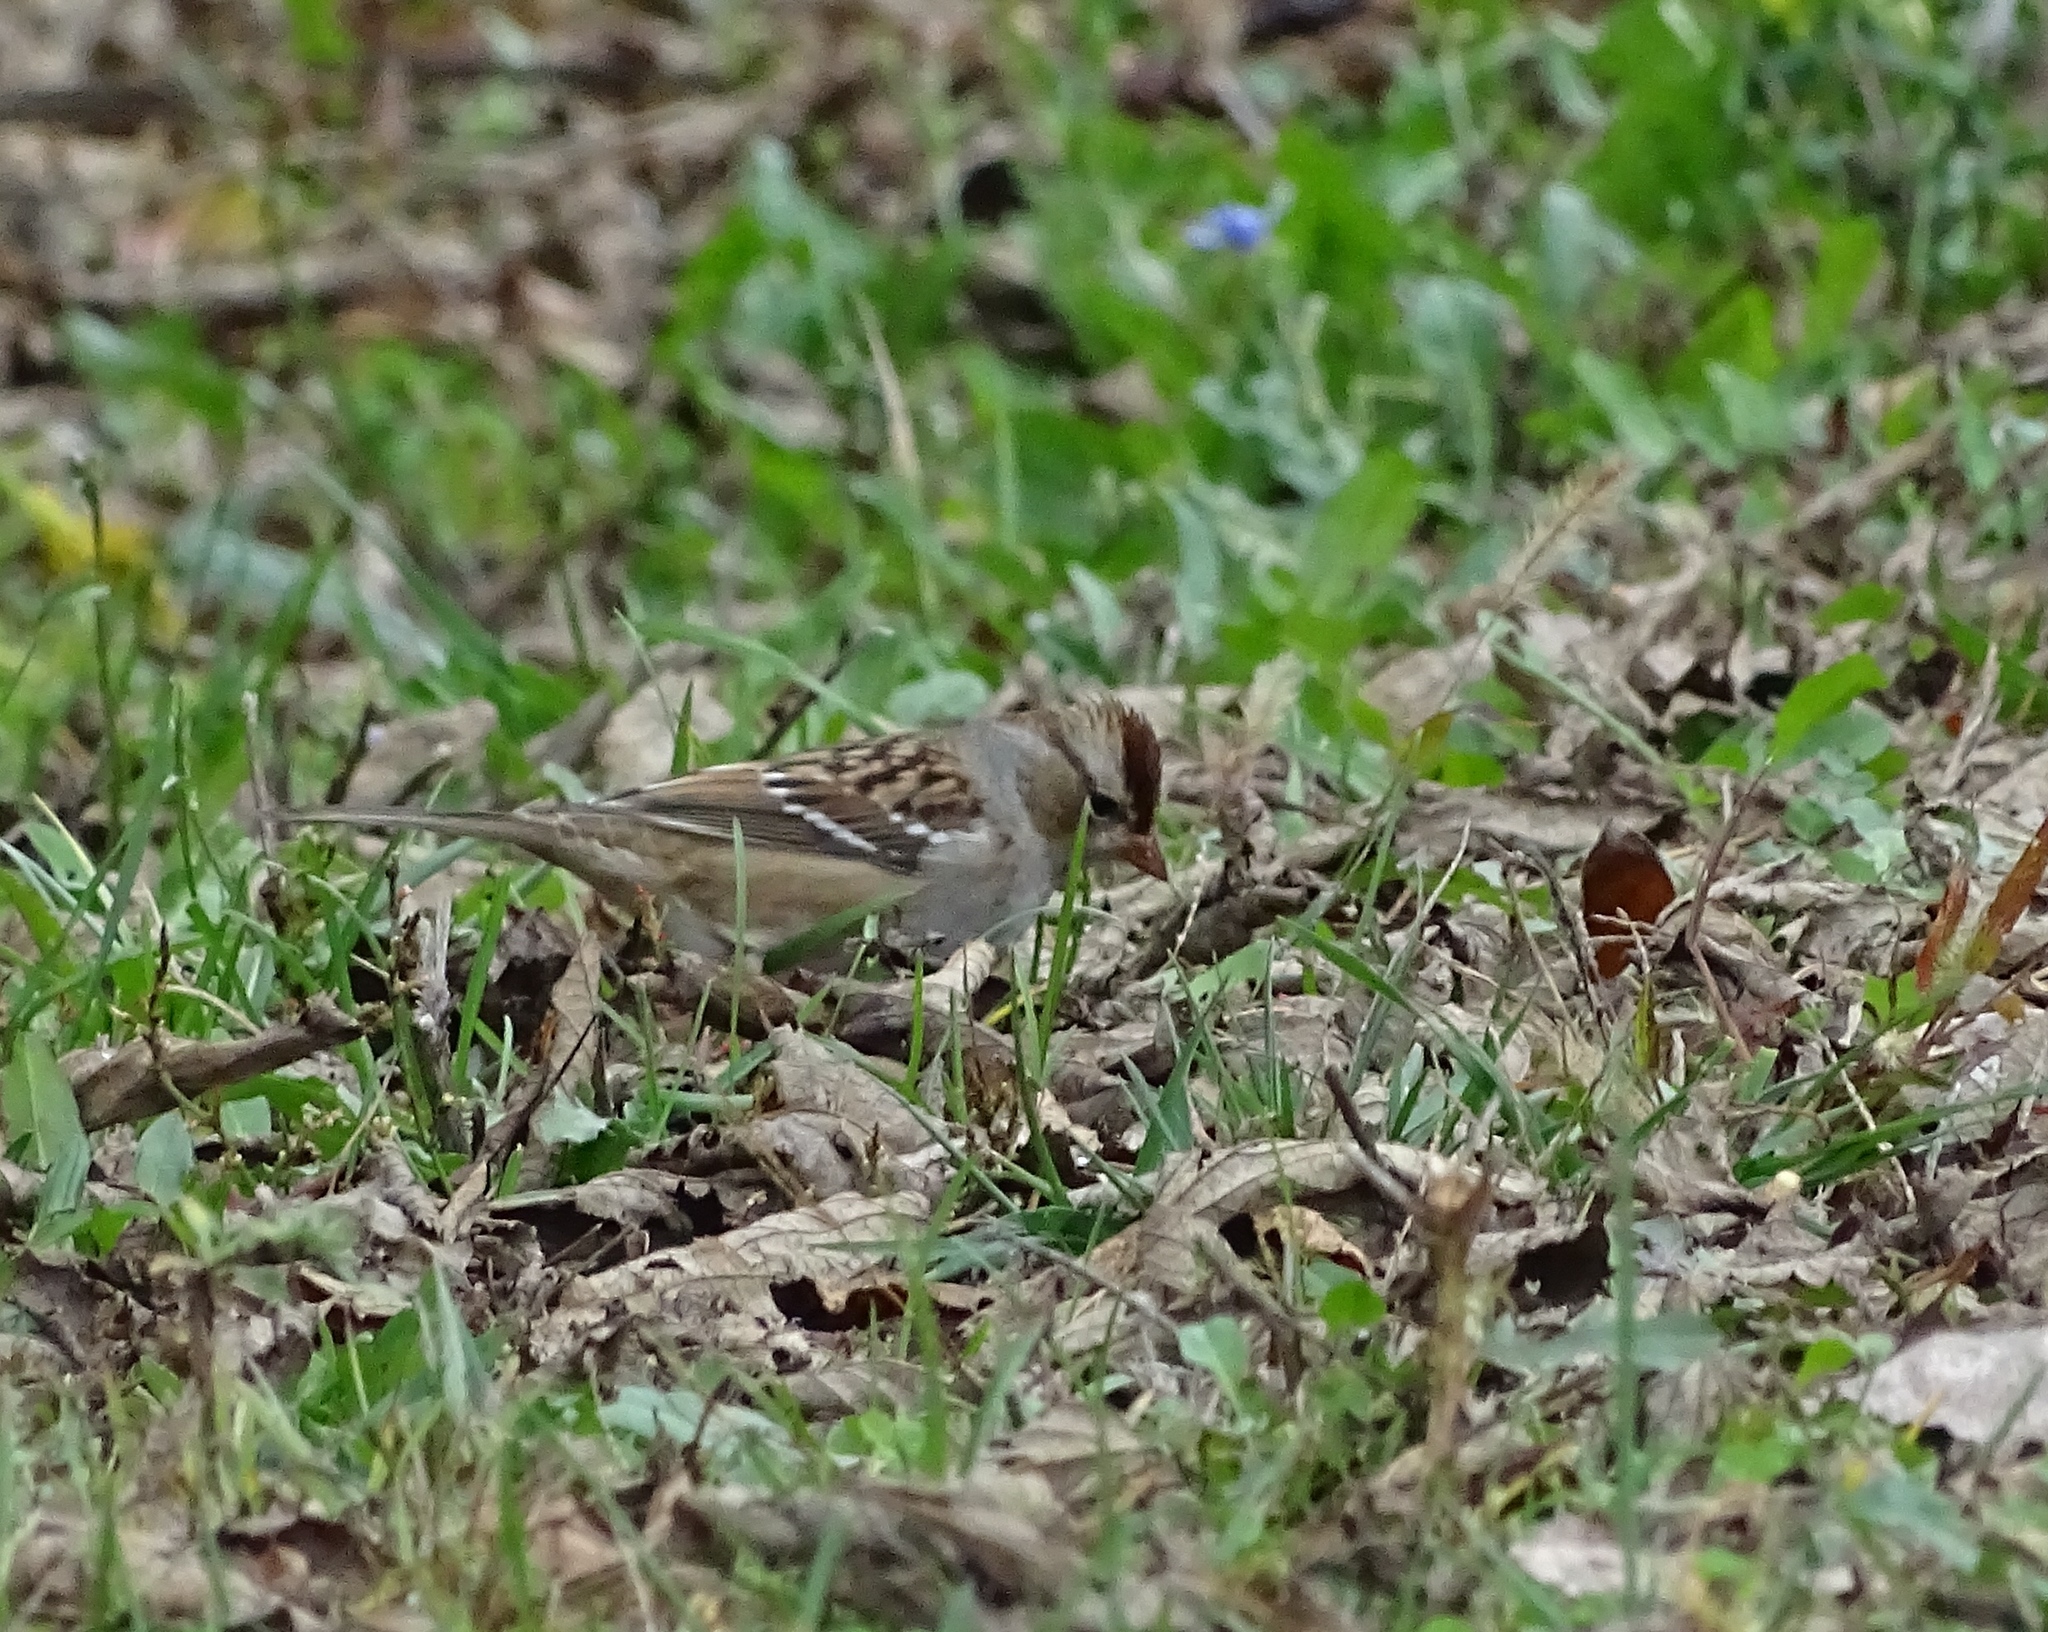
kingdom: Animalia
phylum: Chordata
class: Aves
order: Passeriformes
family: Passerellidae
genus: Zonotrichia
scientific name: Zonotrichia leucophrys
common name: White-crowned sparrow
